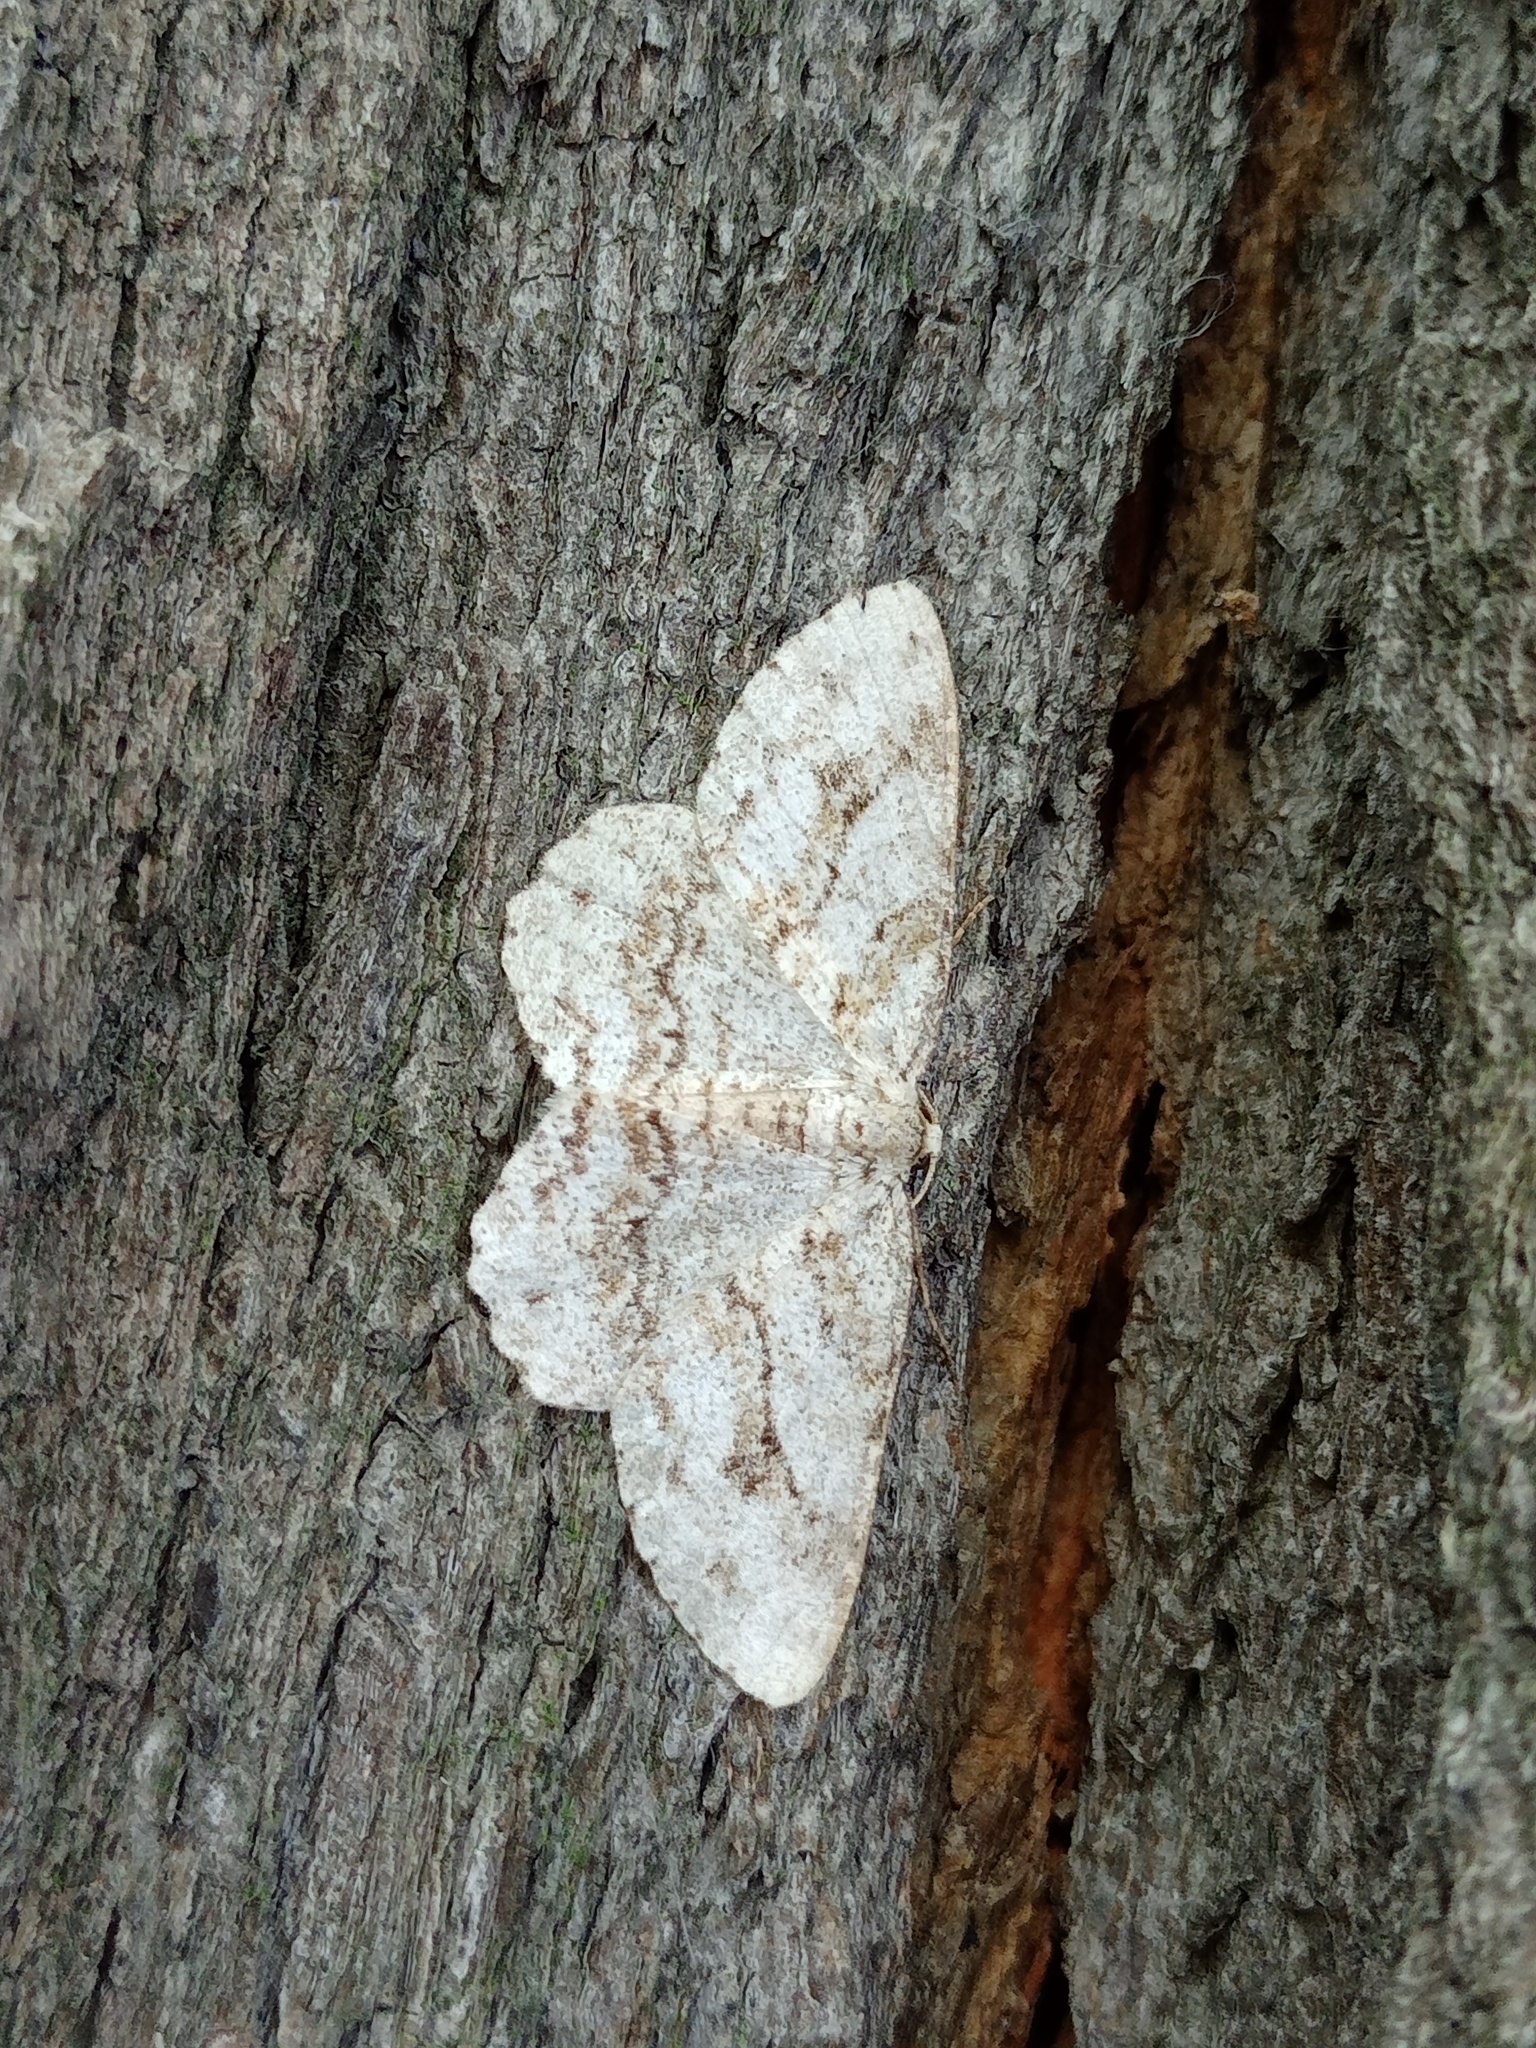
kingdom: Animalia
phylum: Arthropoda
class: Insecta
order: Lepidoptera
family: Geometridae
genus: Ectropis
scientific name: Ectropis crepuscularia
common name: Engrailed
